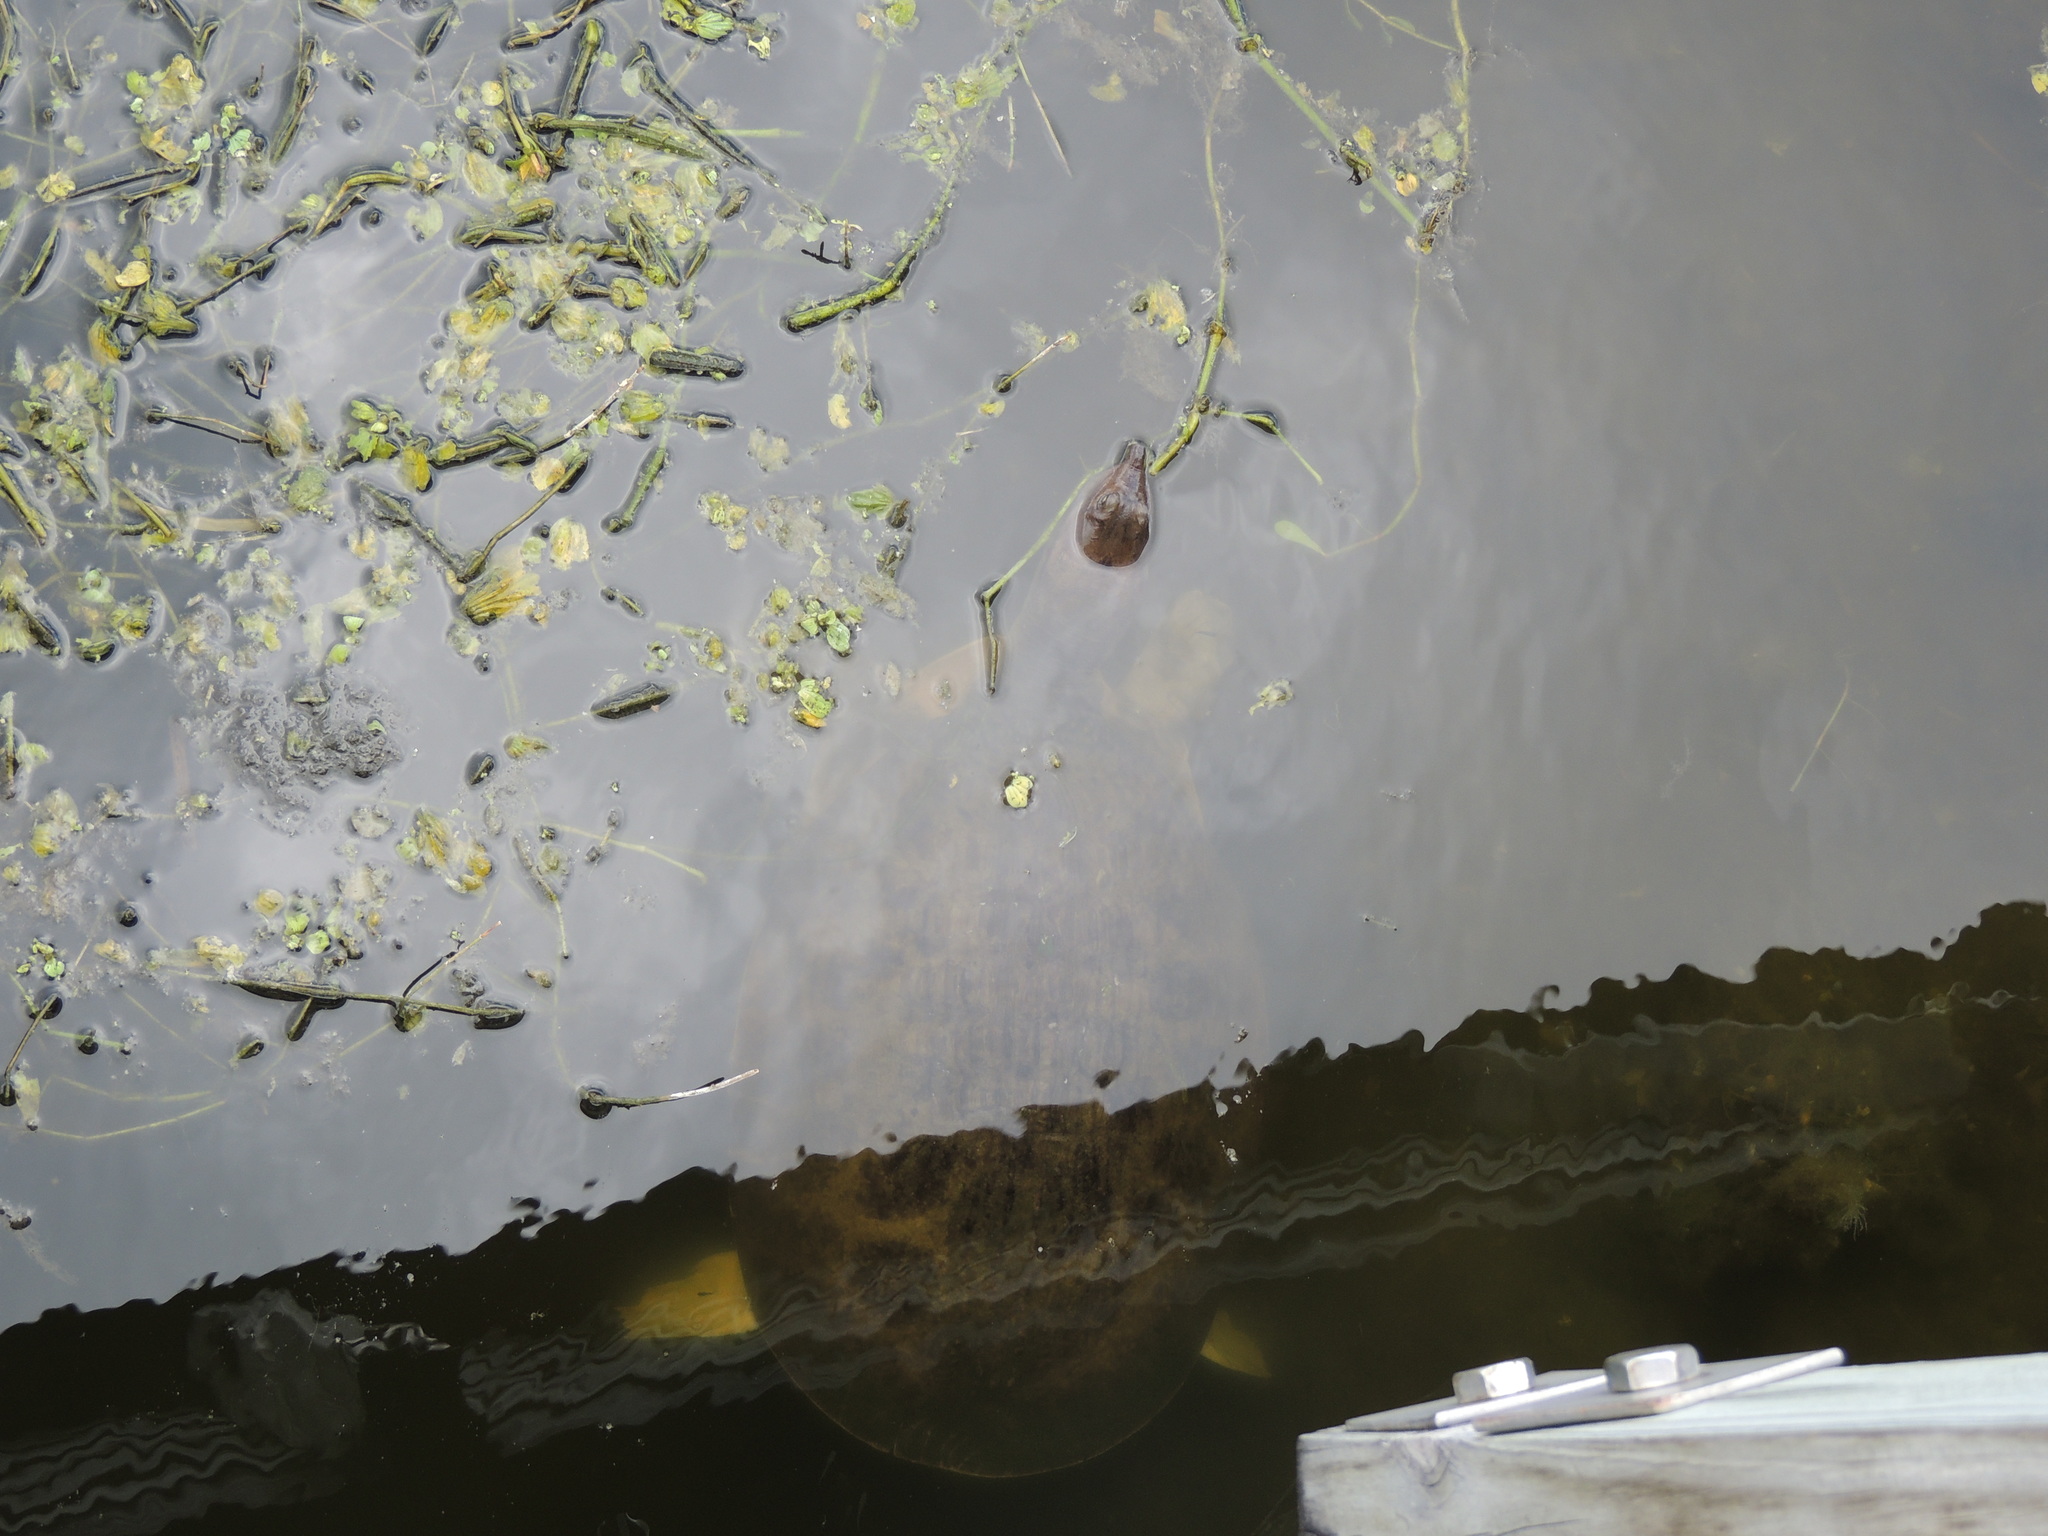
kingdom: Animalia
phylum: Chordata
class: Testudines
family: Trionychidae
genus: Apalone
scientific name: Apalone ferox
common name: Florida softshell turtle
